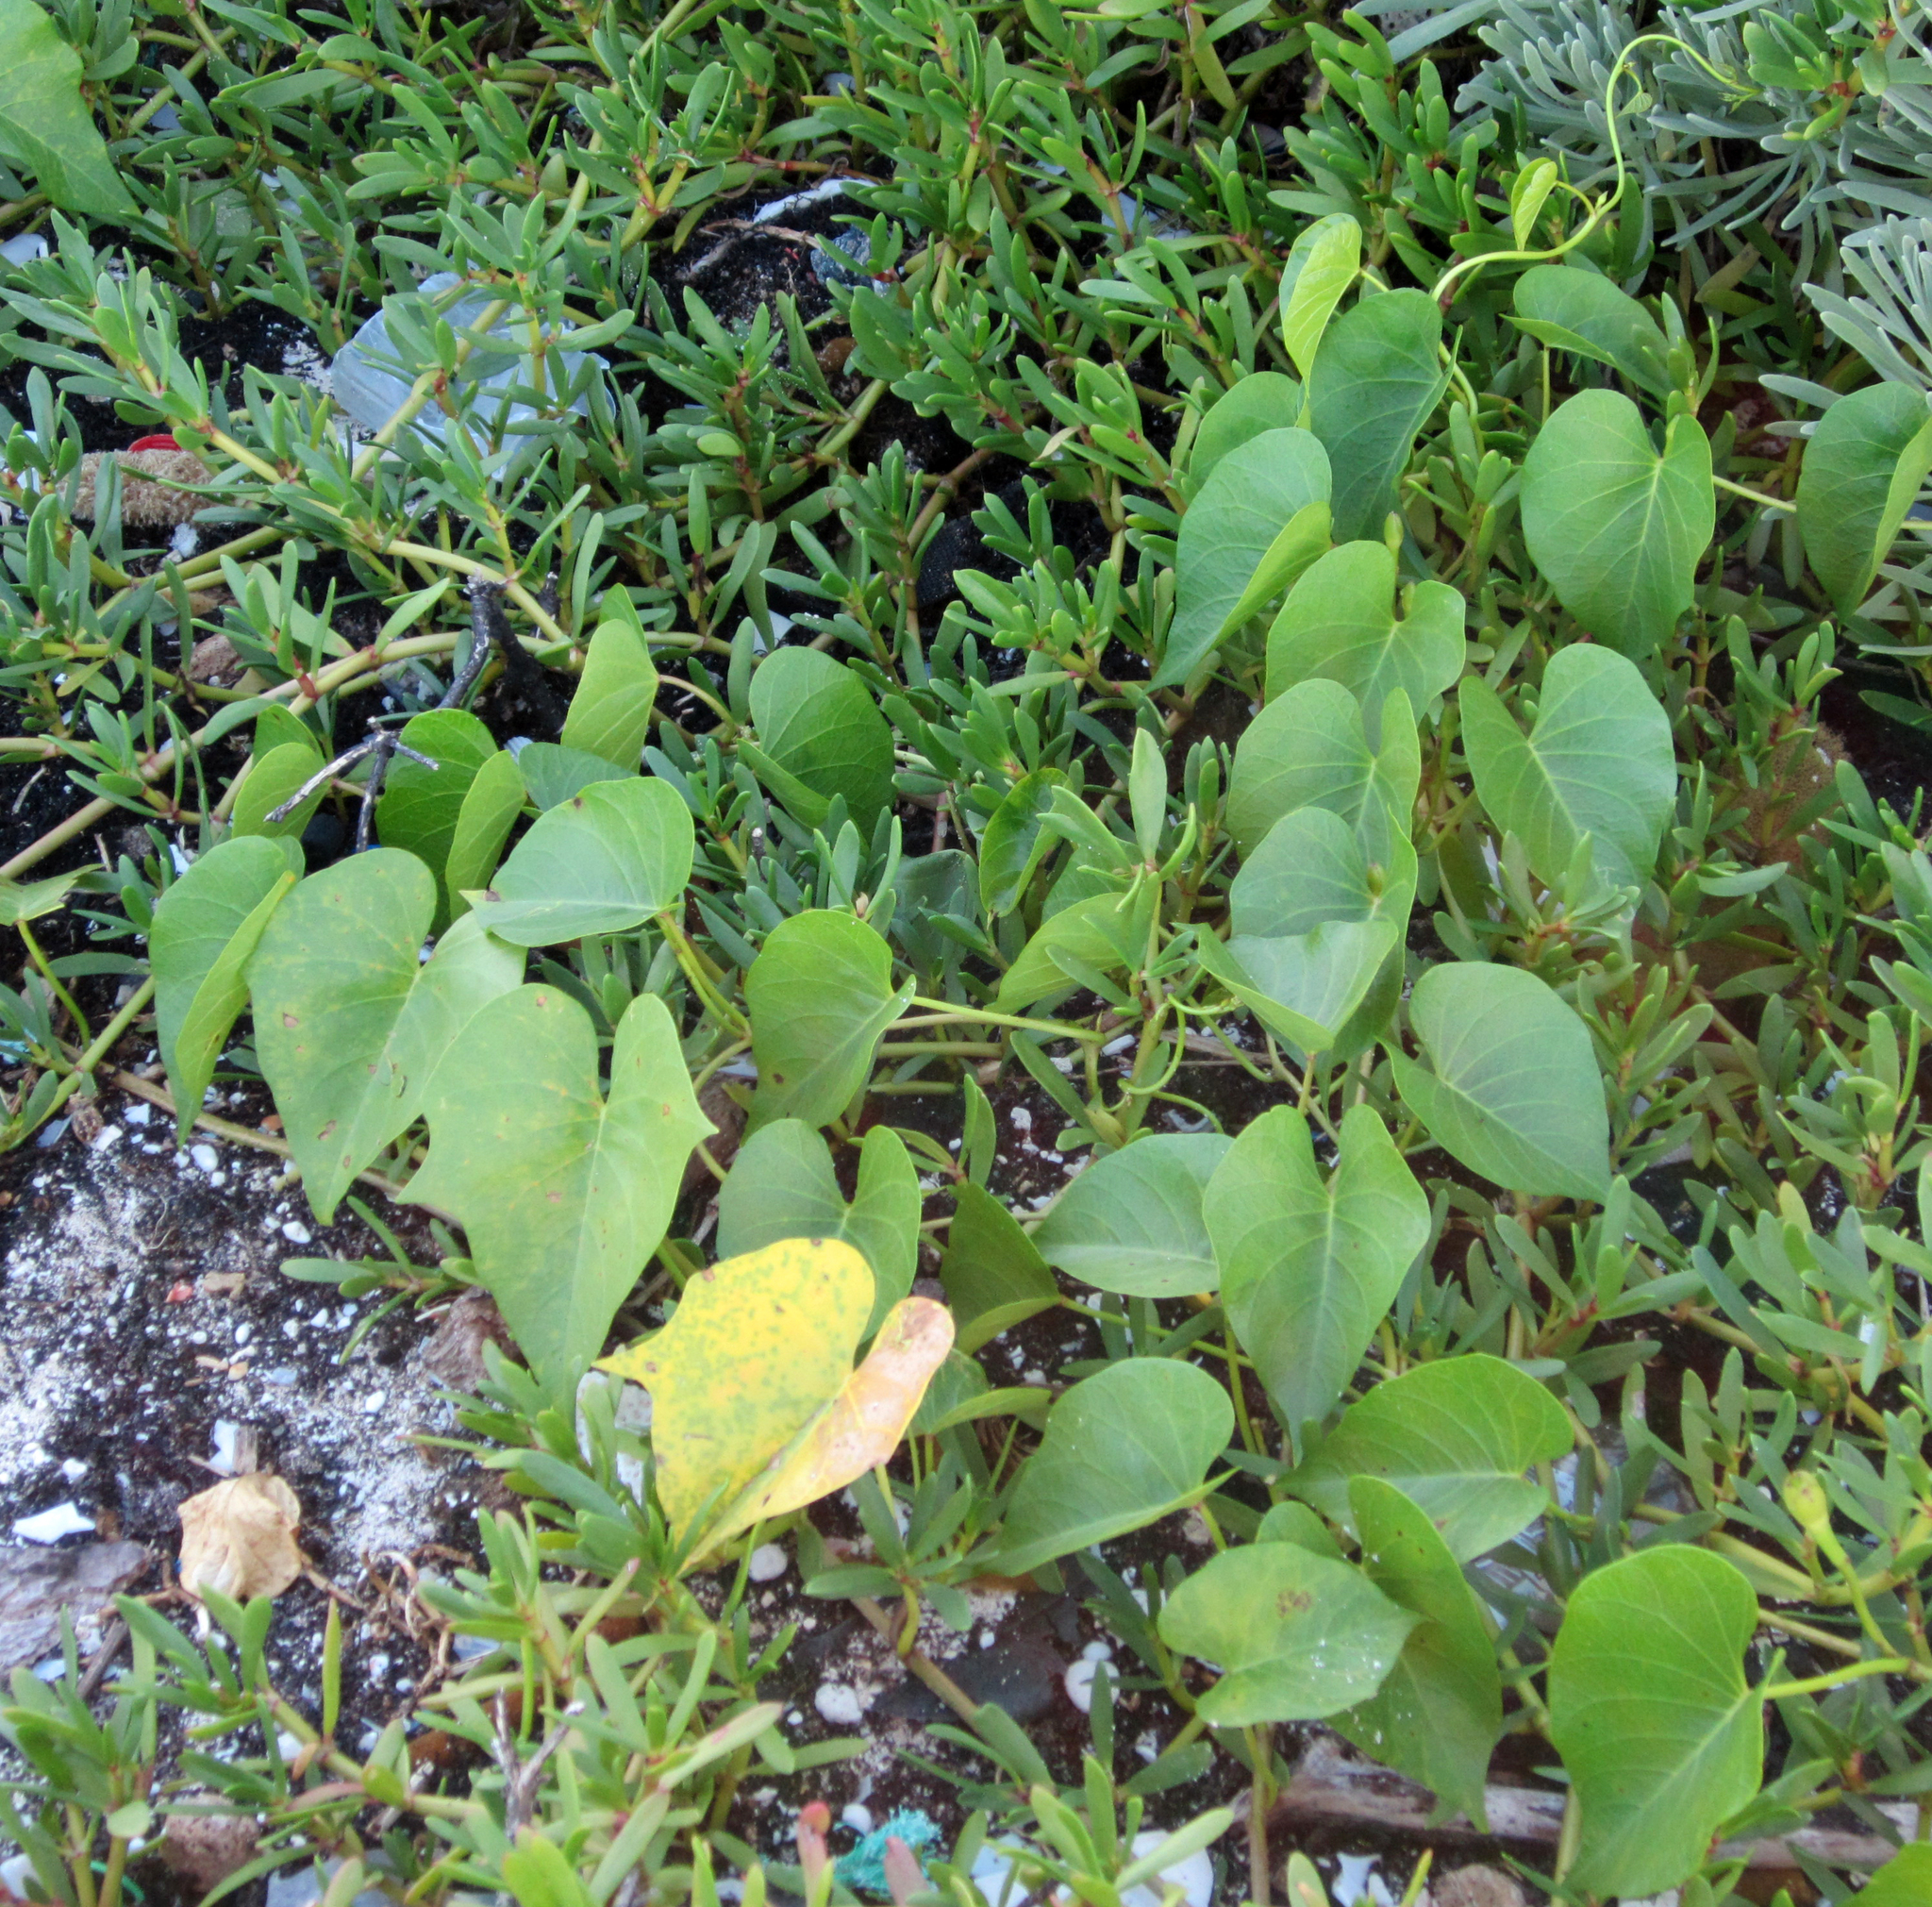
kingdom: Plantae
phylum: Tracheophyta
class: Magnoliopsida
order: Solanales
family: Convolvulaceae
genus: Ipomoea
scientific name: Ipomoea violacea
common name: Beach moonflower
